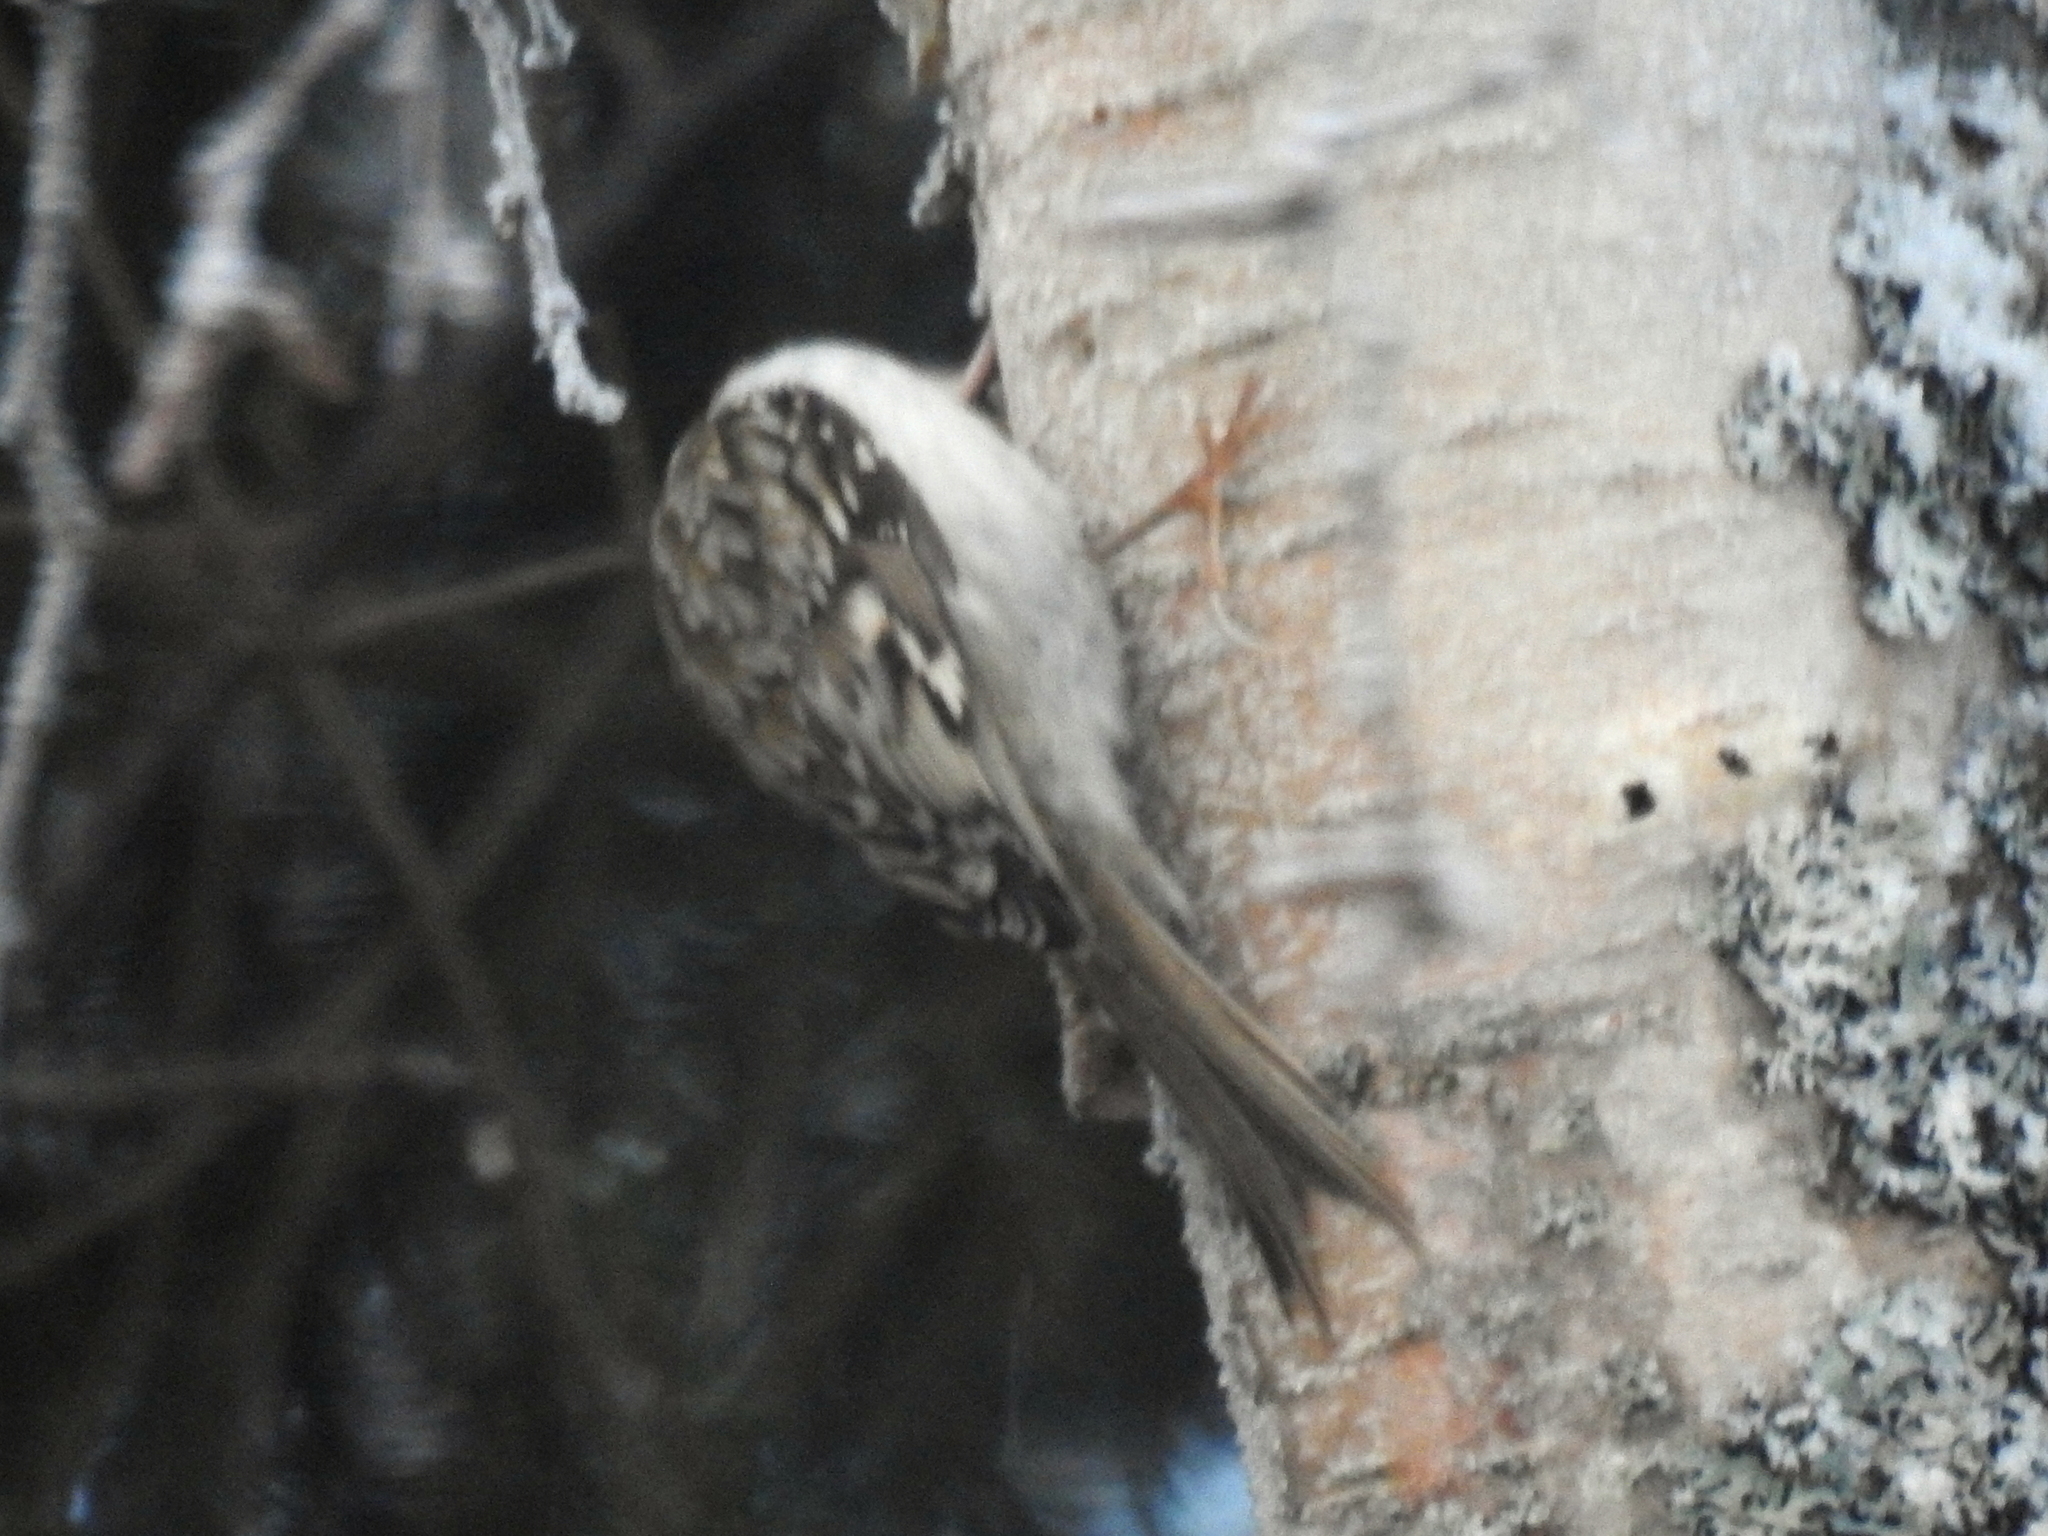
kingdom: Animalia
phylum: Chordata
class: Aves
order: Passeriformes
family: Certhiidae
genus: Certhia
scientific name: Certhia familiaris
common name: Eurasian treecreeper
